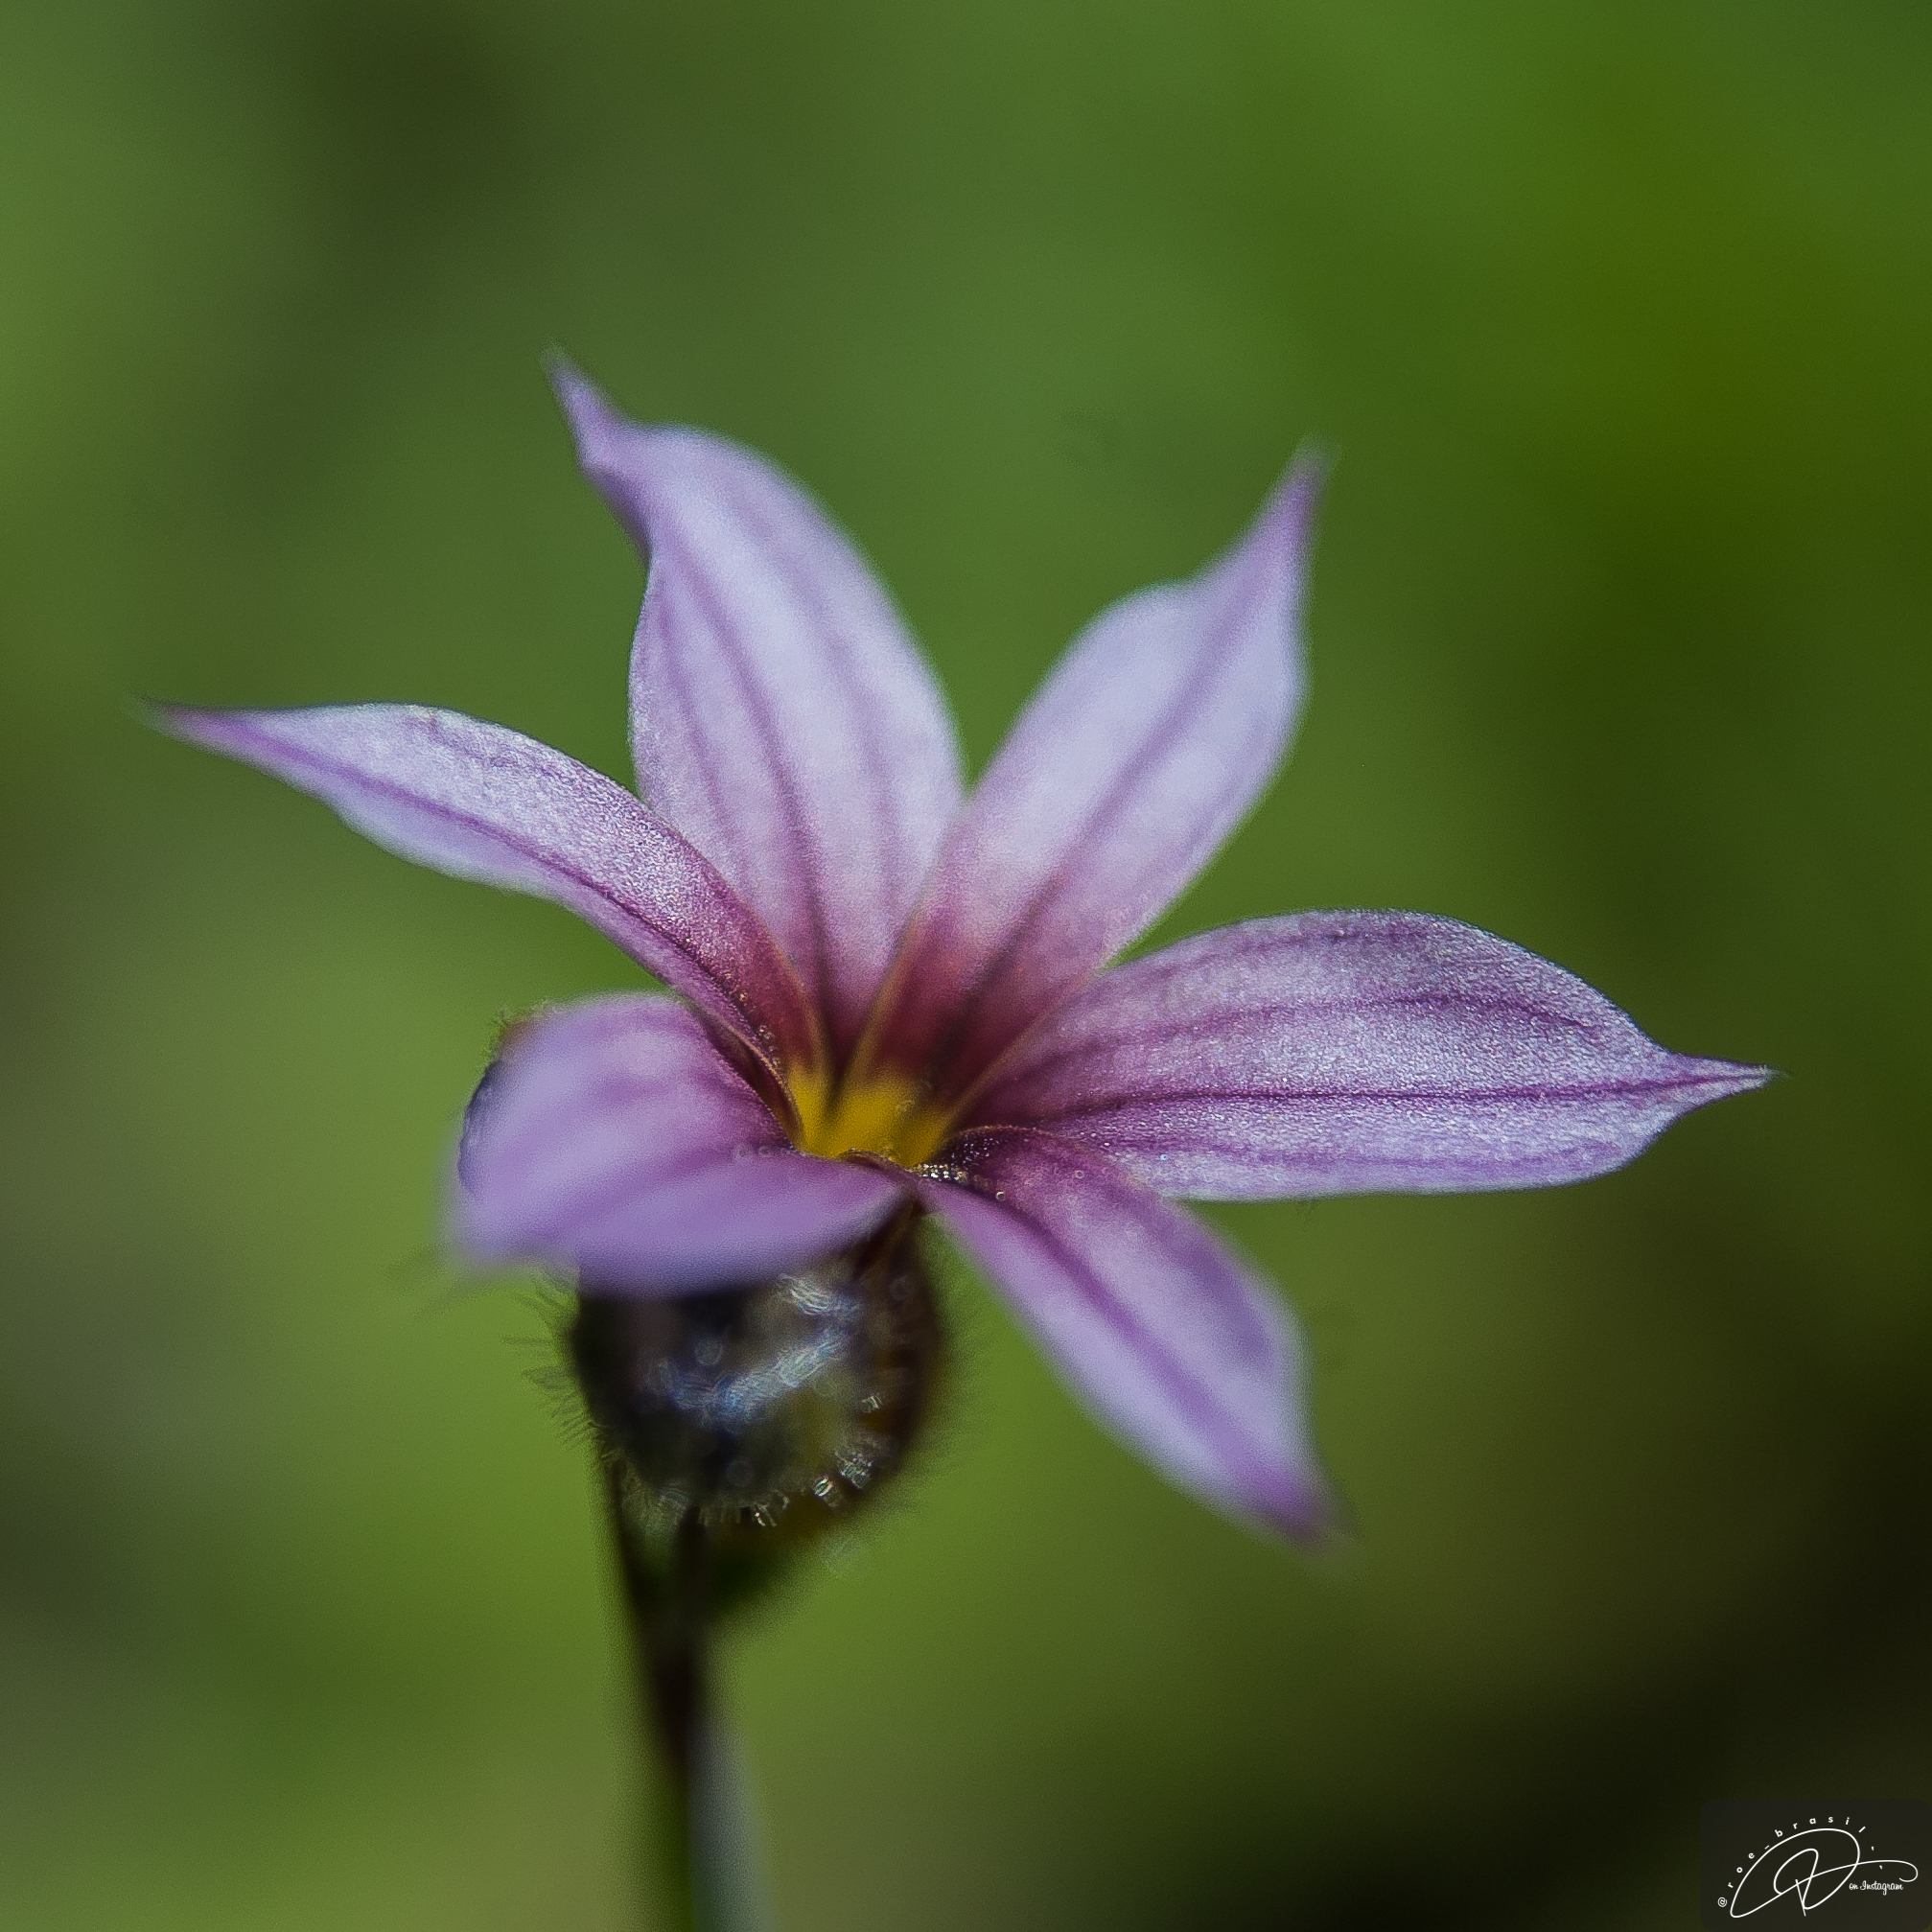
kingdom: Plantae
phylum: Tracheophyta
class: Liliopsida
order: Asparagales
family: Iridaceae
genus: Sisyrinchium
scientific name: Sisyrinchium micranthum
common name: Bermuda pigroot
